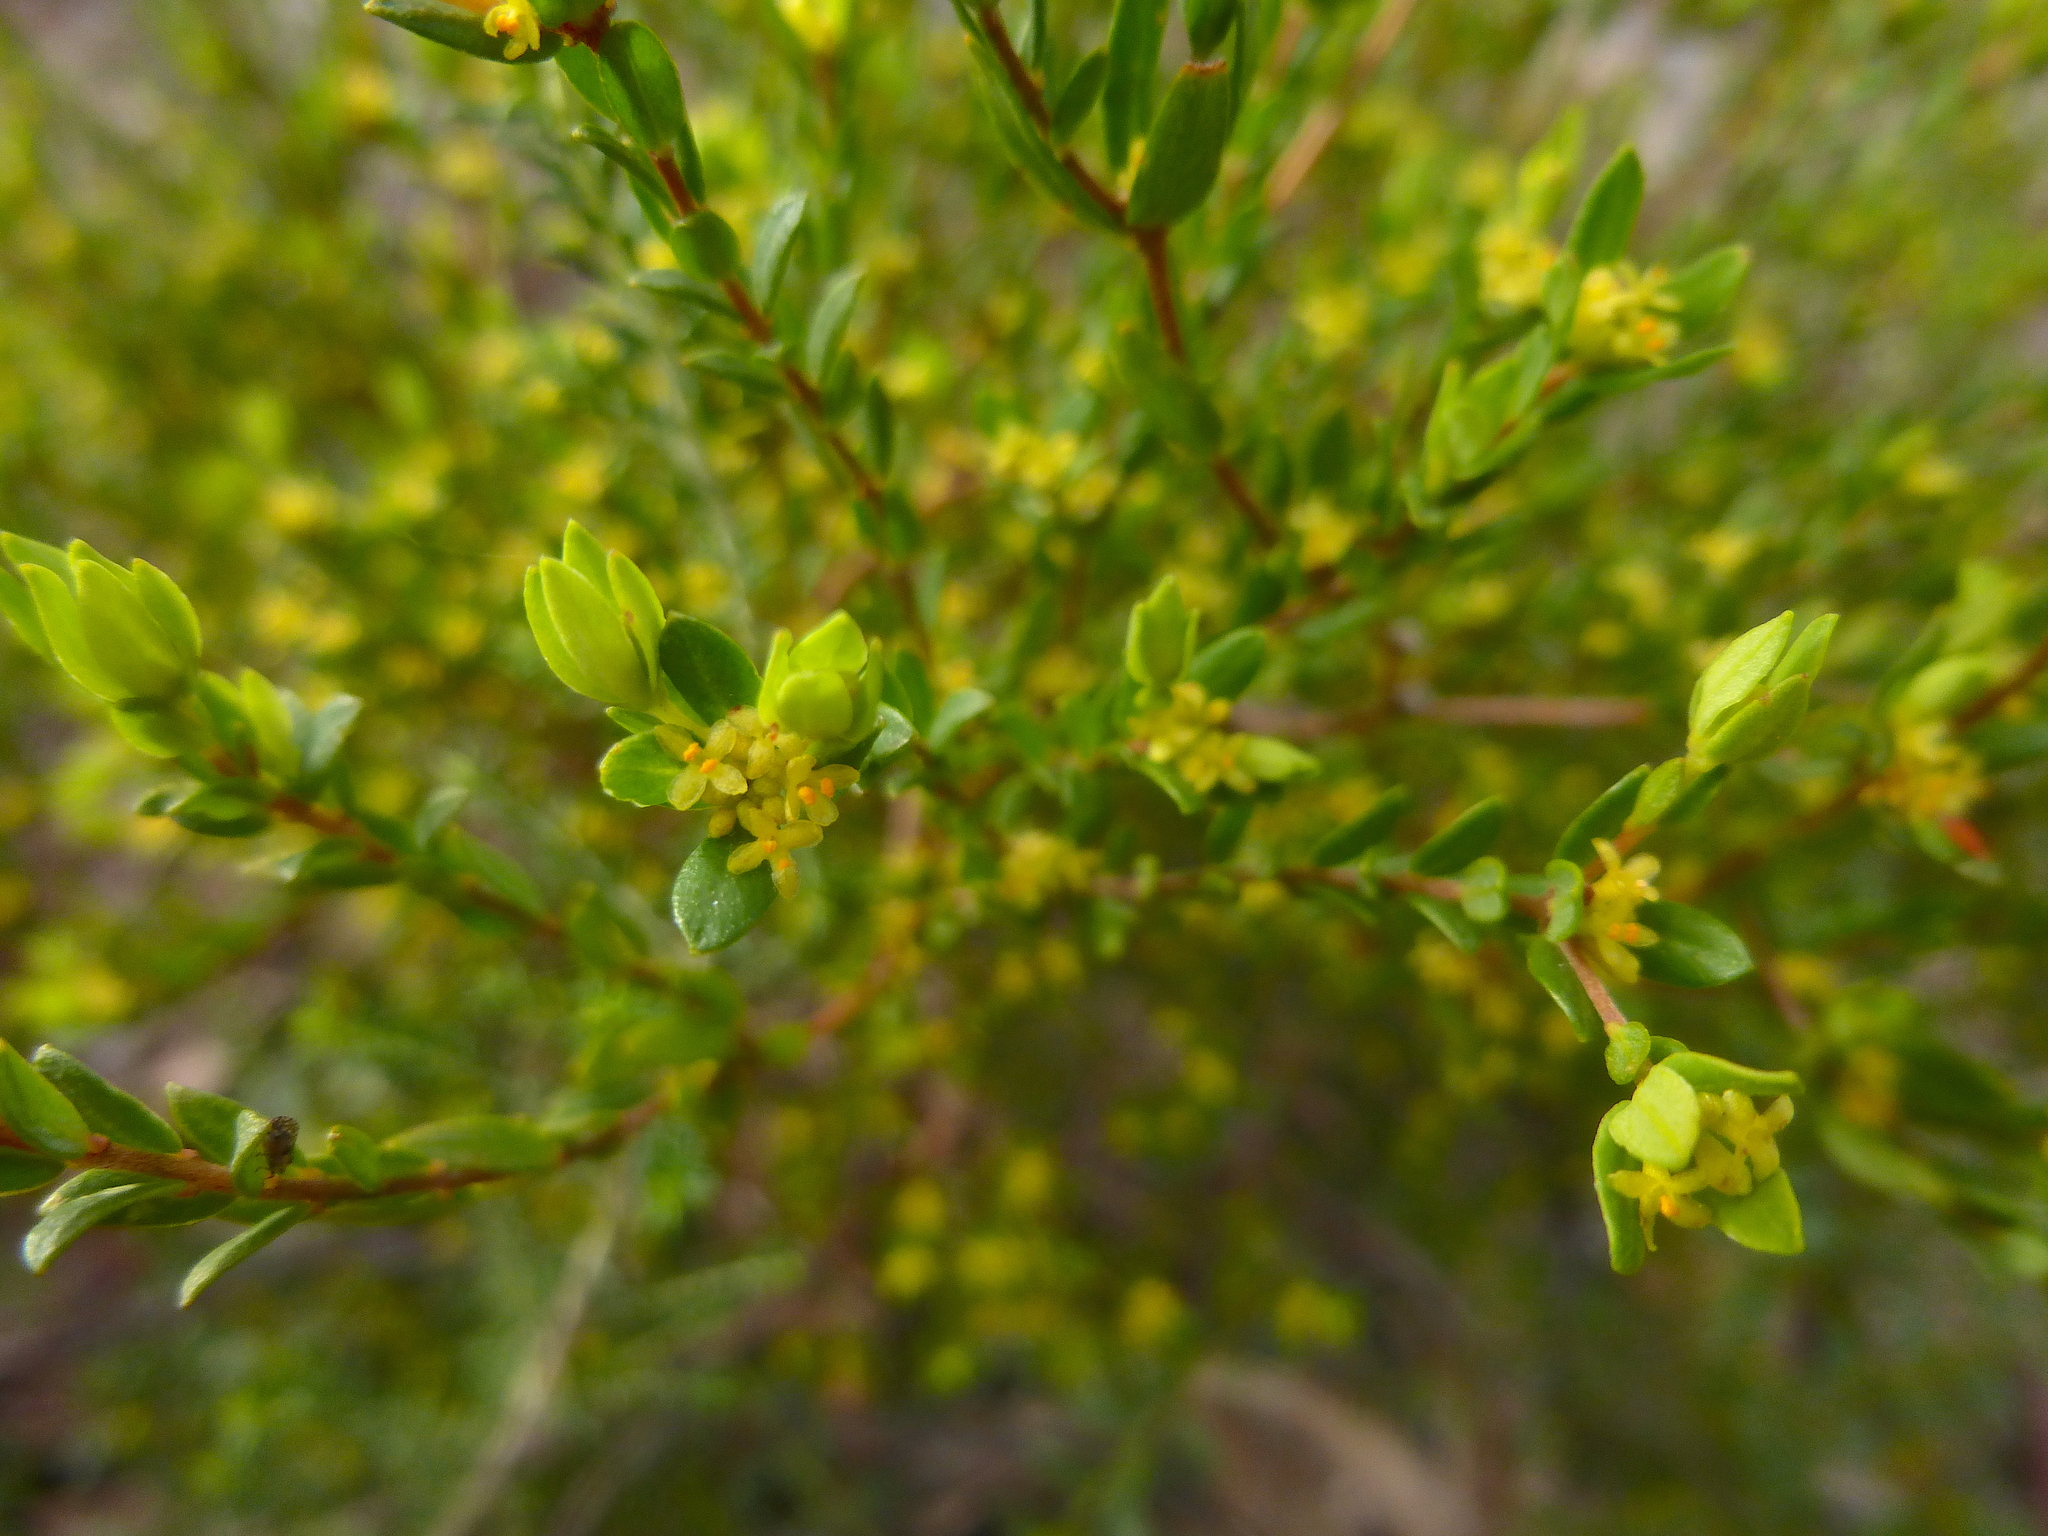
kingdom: Plantae
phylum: Tracheophyta
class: Magnoliopsida
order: Malvales
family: Thymelaeaceae
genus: Pimelea
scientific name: Pimelea hewardiana
